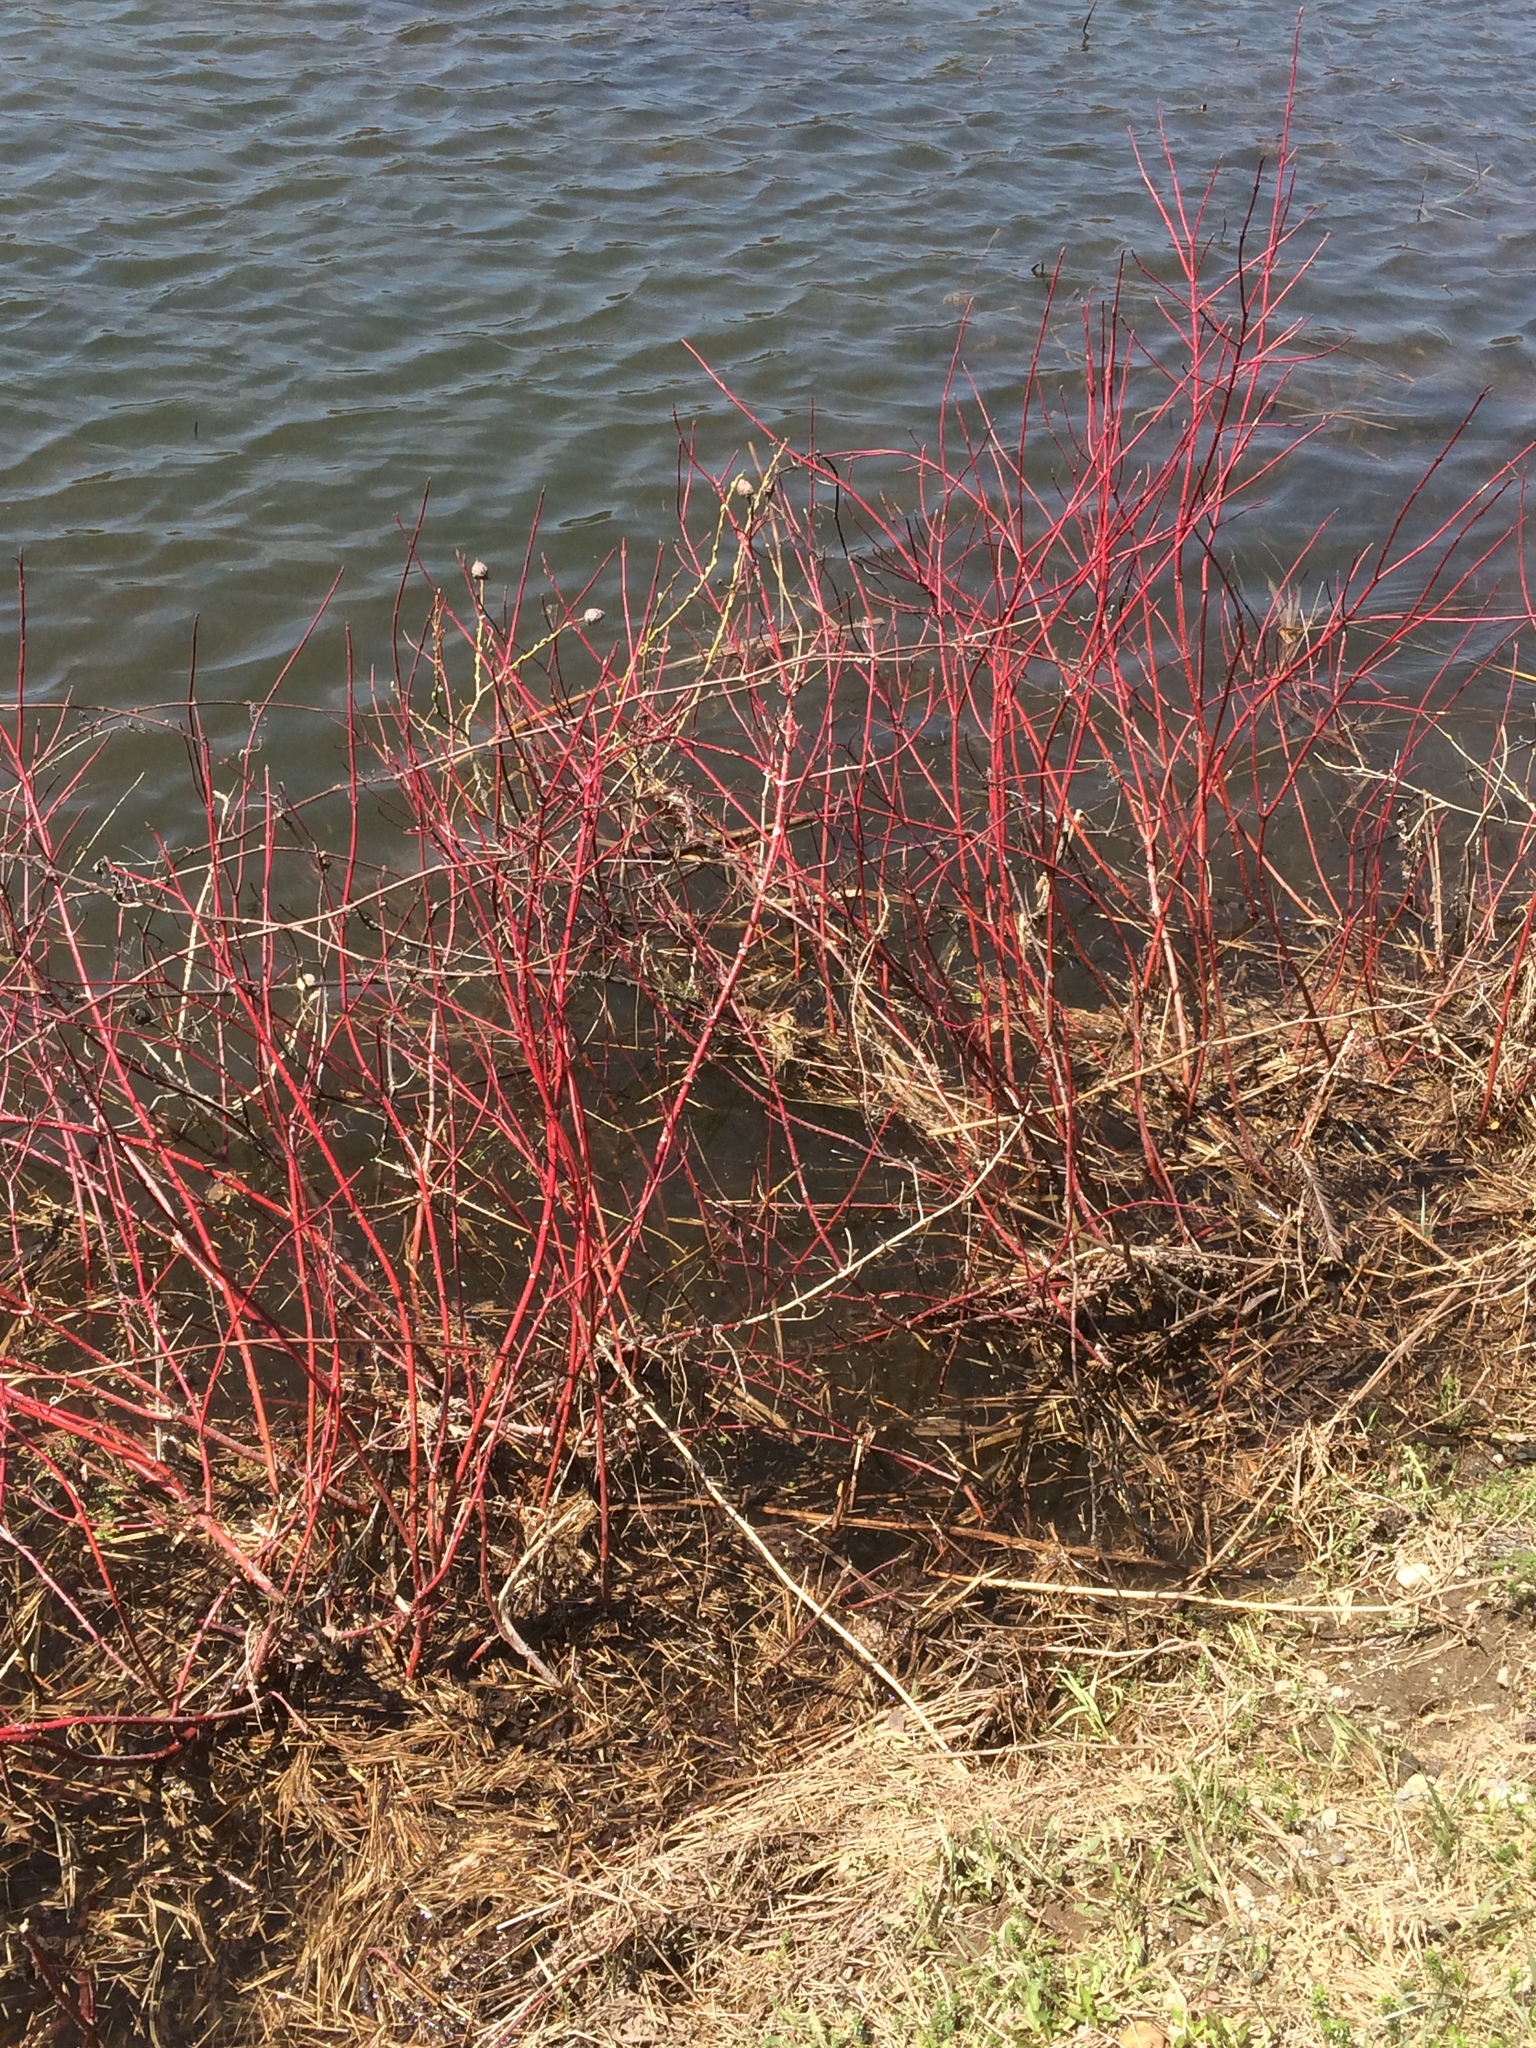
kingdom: Plantae
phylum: Tracheophyta
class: Magnoliopsida
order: Cornales
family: Cornaceae
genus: Cornus
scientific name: Cornus sericea
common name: Red-osier dogwood
